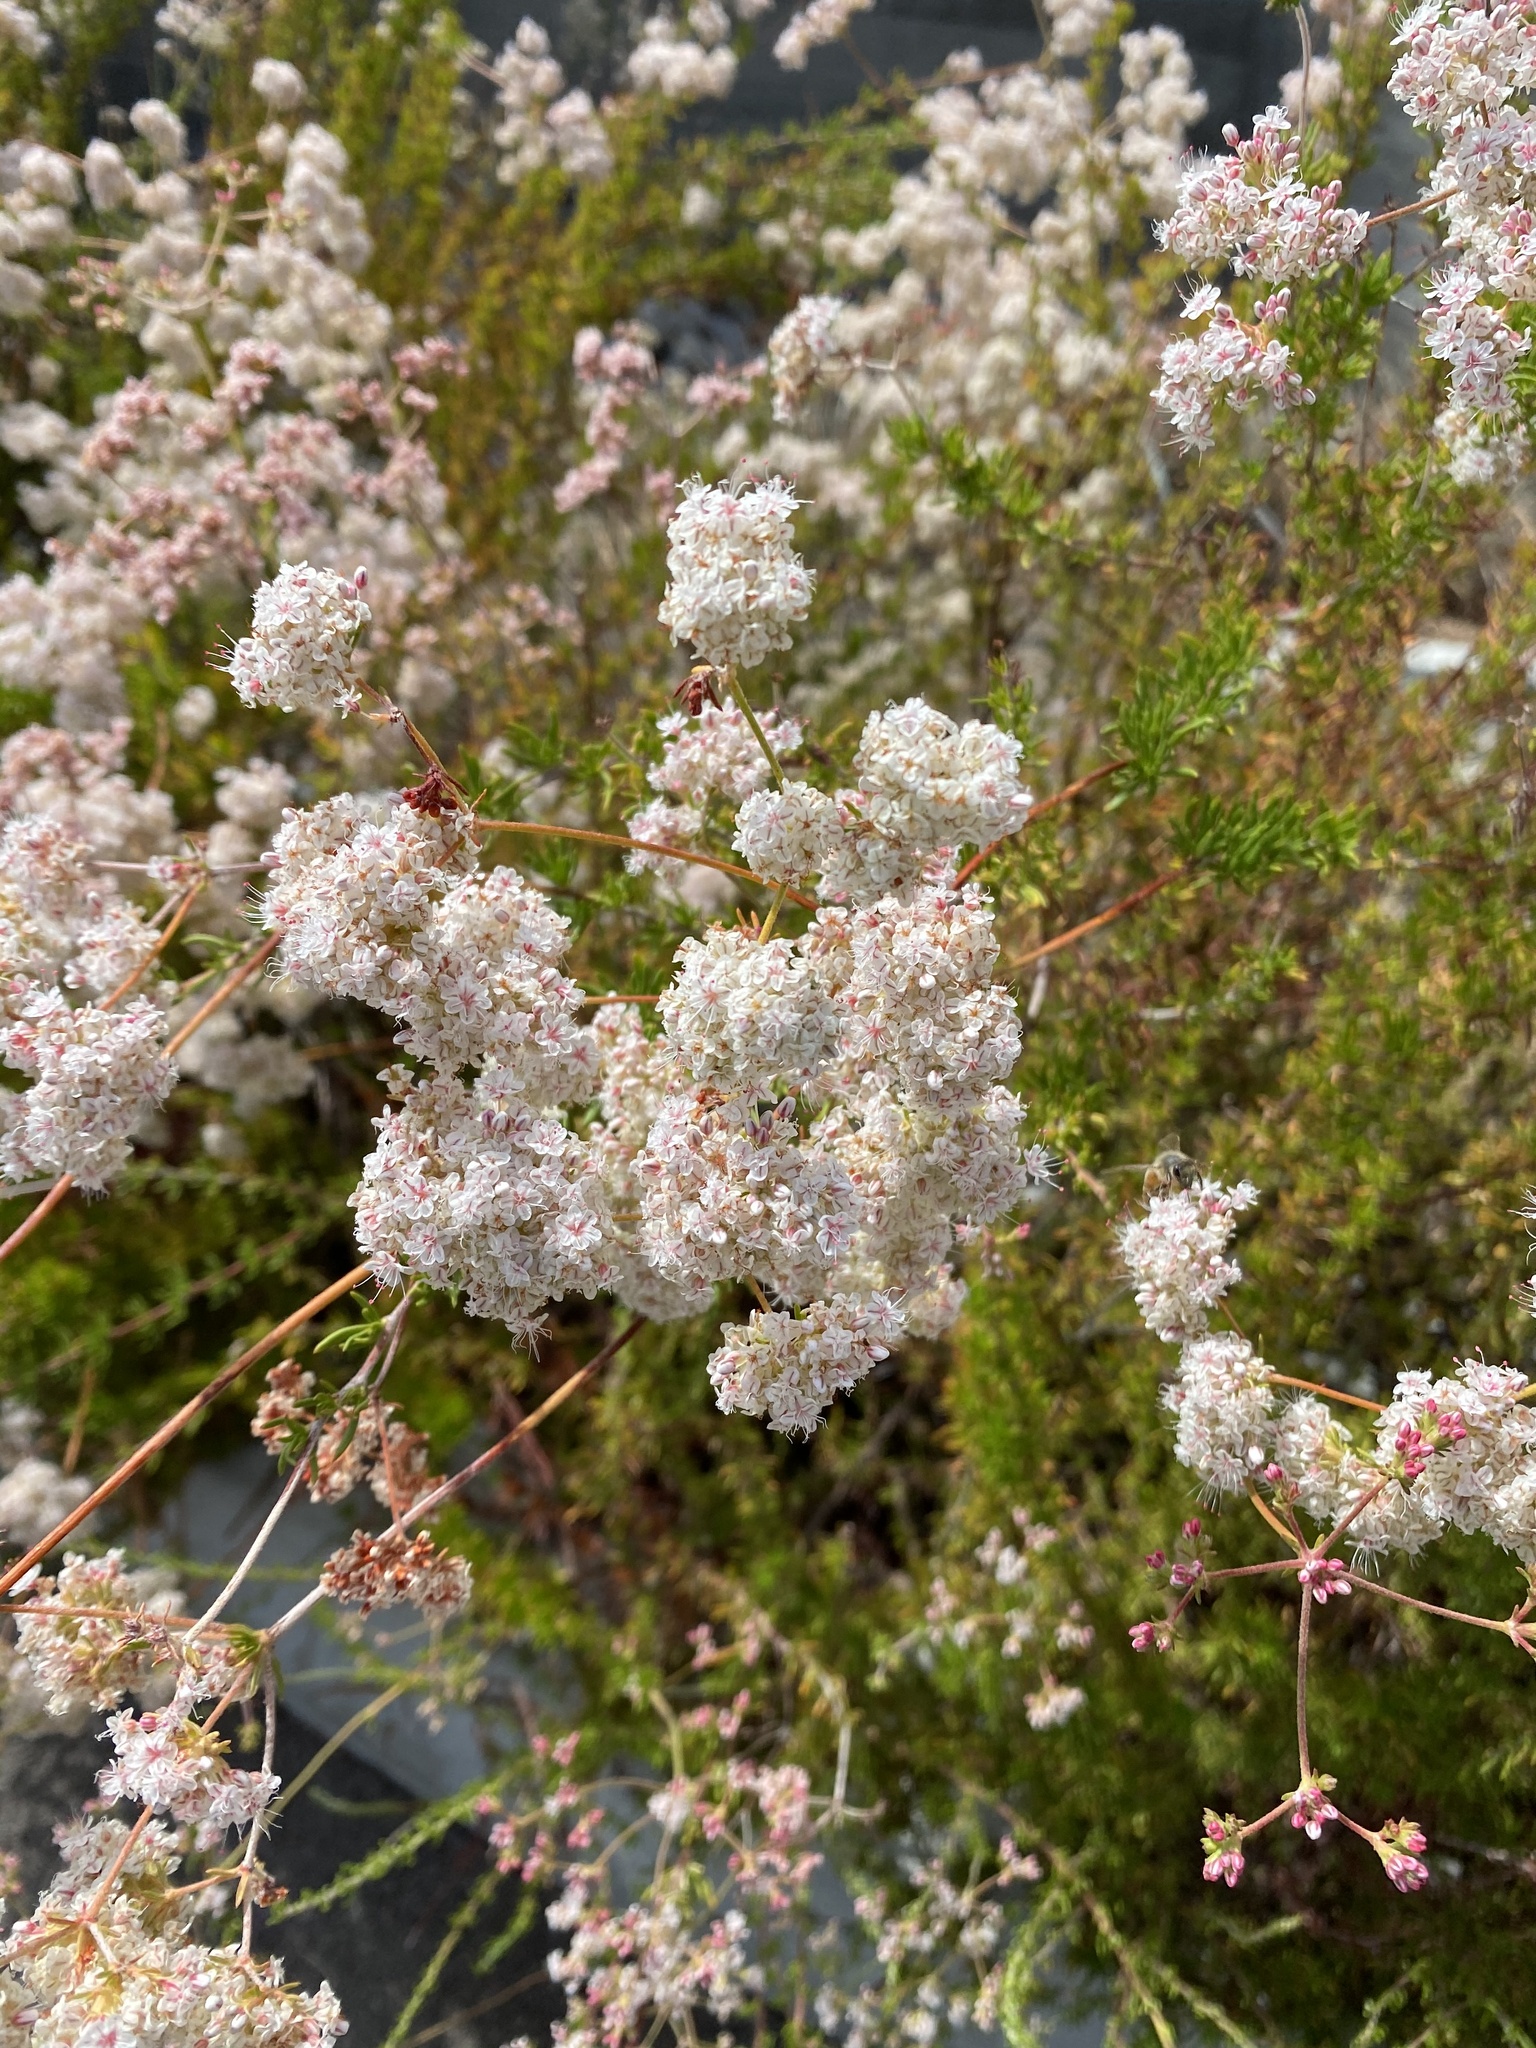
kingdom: Plantae
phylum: Tracheophyta
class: Magnoliopsida
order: Caryophyllales
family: Polygonaceae
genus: Eriogonum
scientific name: Eriogonum fasciculatum
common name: California wild buckwheat
